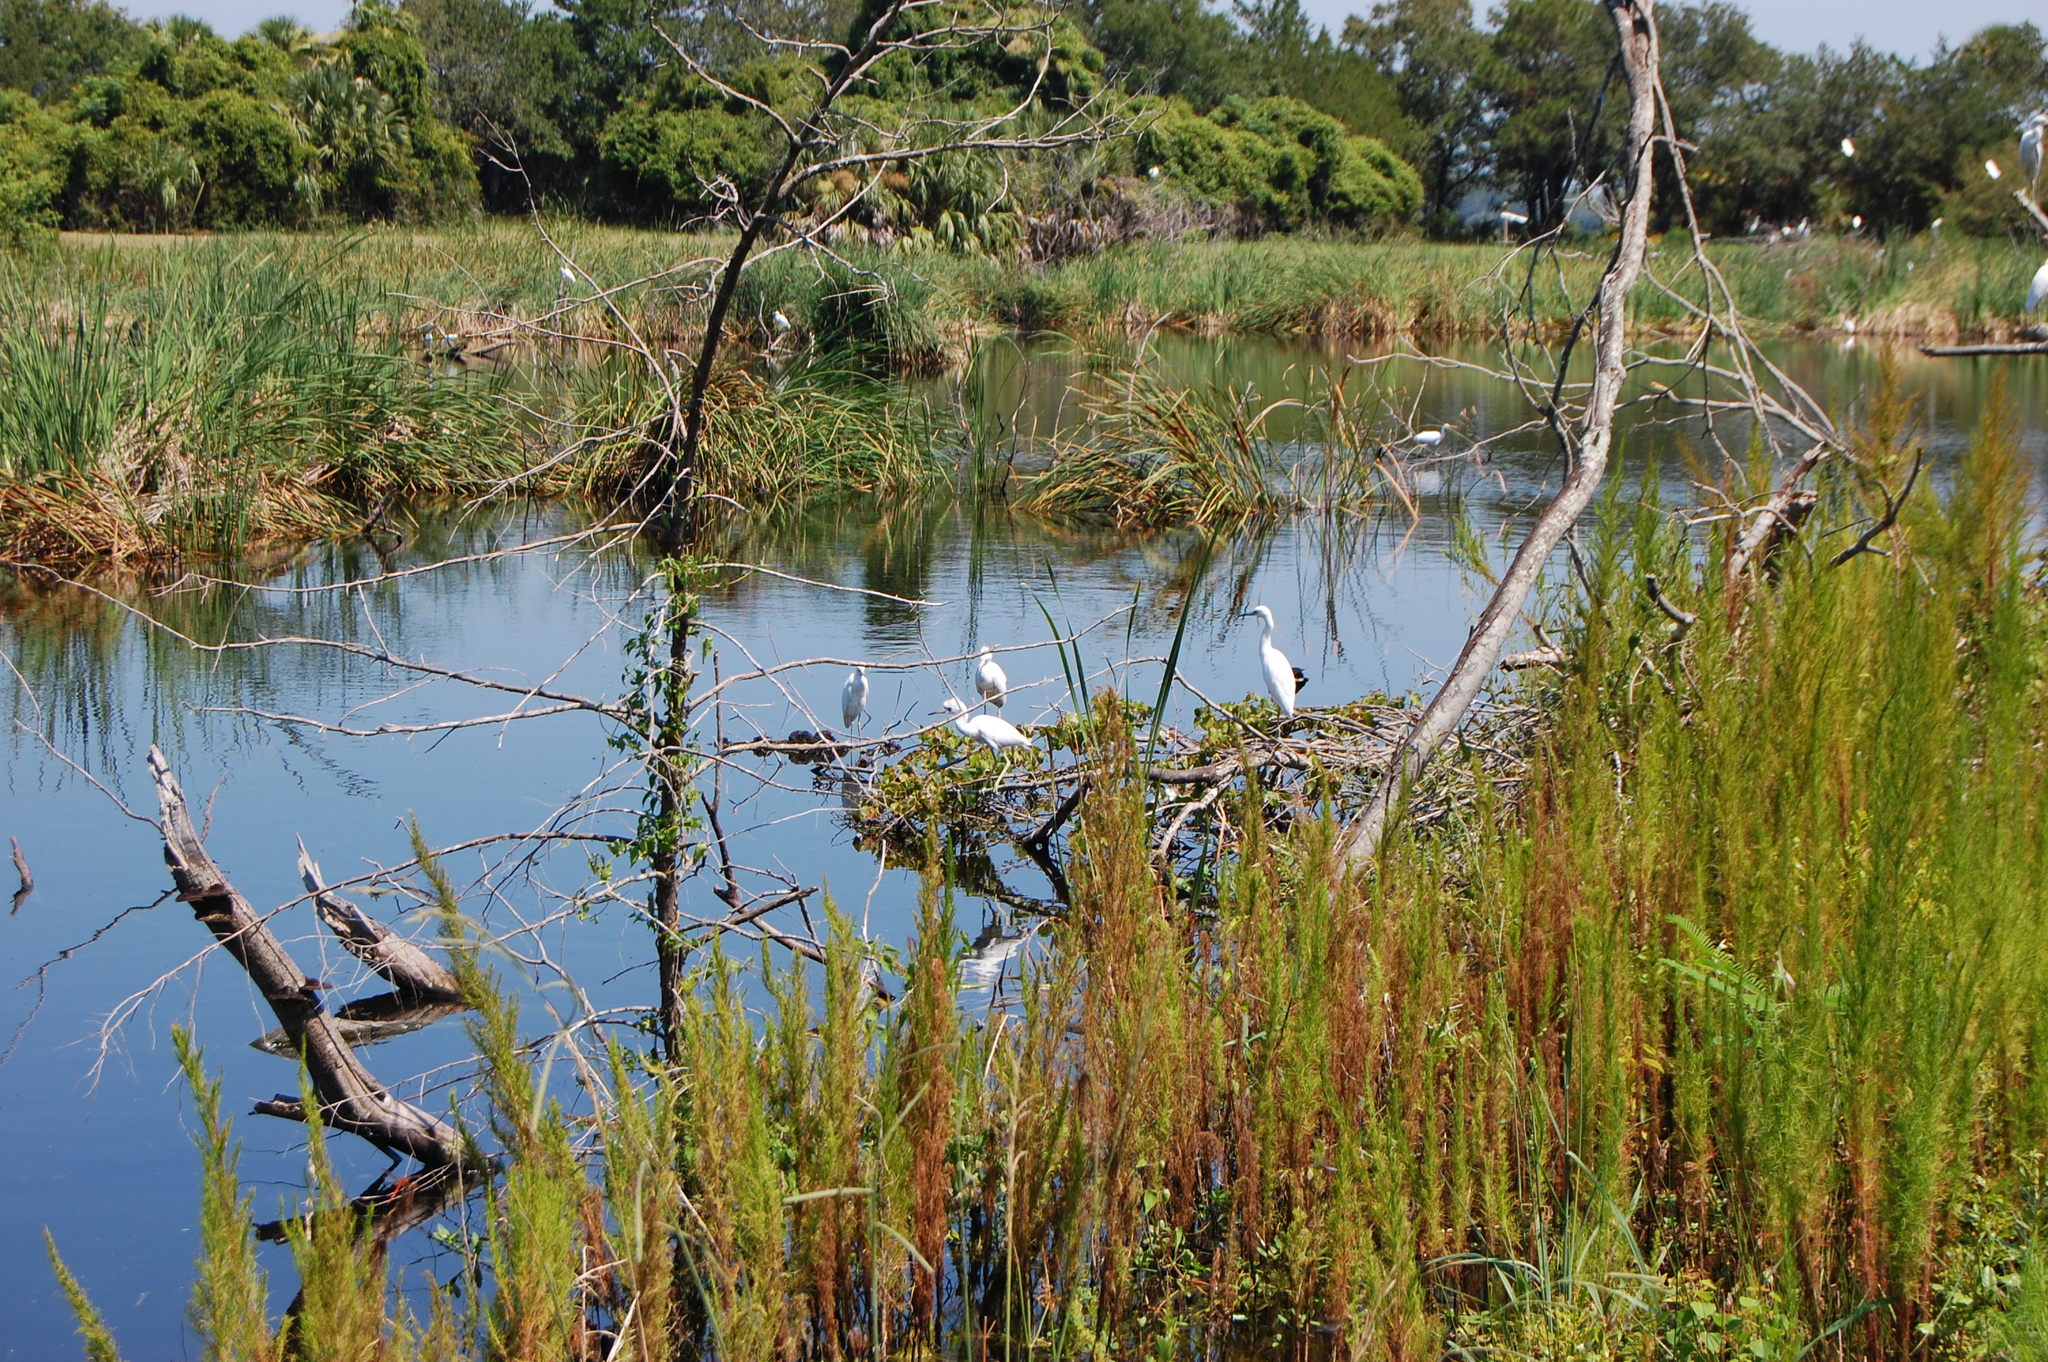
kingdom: Animalia
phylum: Chordata
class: Aves
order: Pelecaniformes
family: Ardeidae
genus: Egretta
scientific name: Egretta caerulea
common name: Little blue heron
